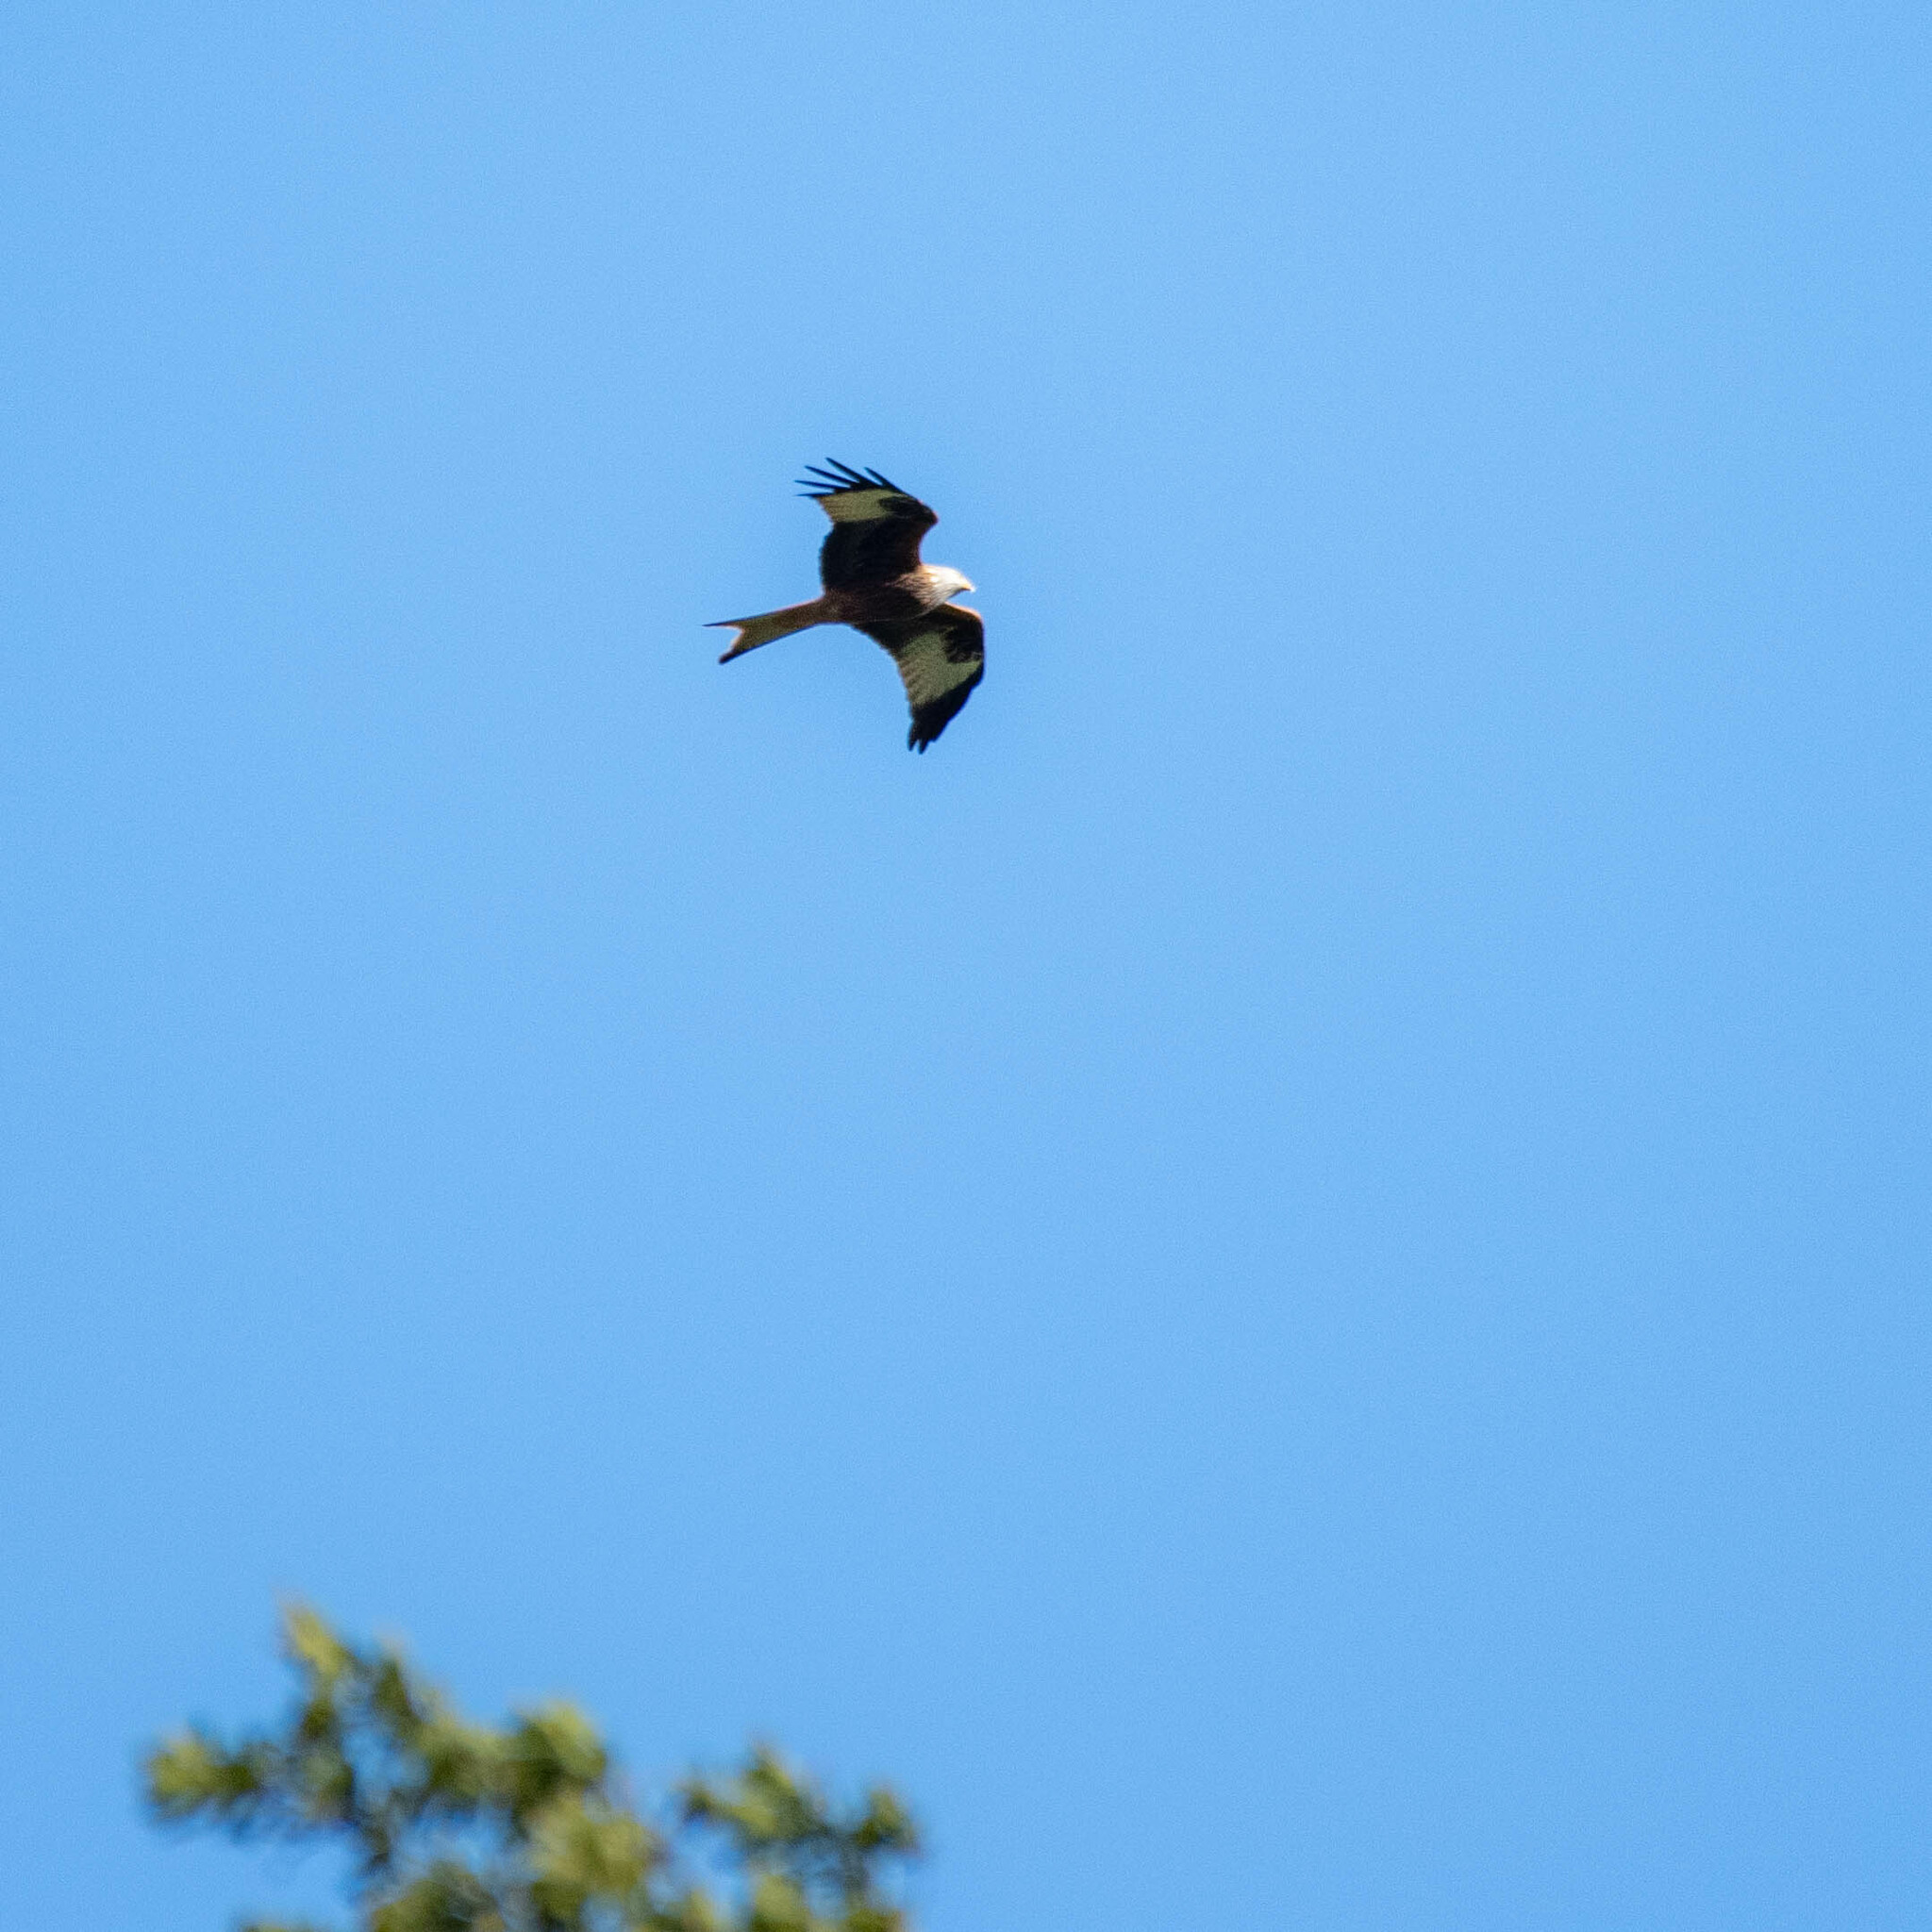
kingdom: Animalia
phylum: Chordata
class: Aves
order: Accipitriformes
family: Accipitridae
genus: Milvus
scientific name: Milvus milvus
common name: Red kite
